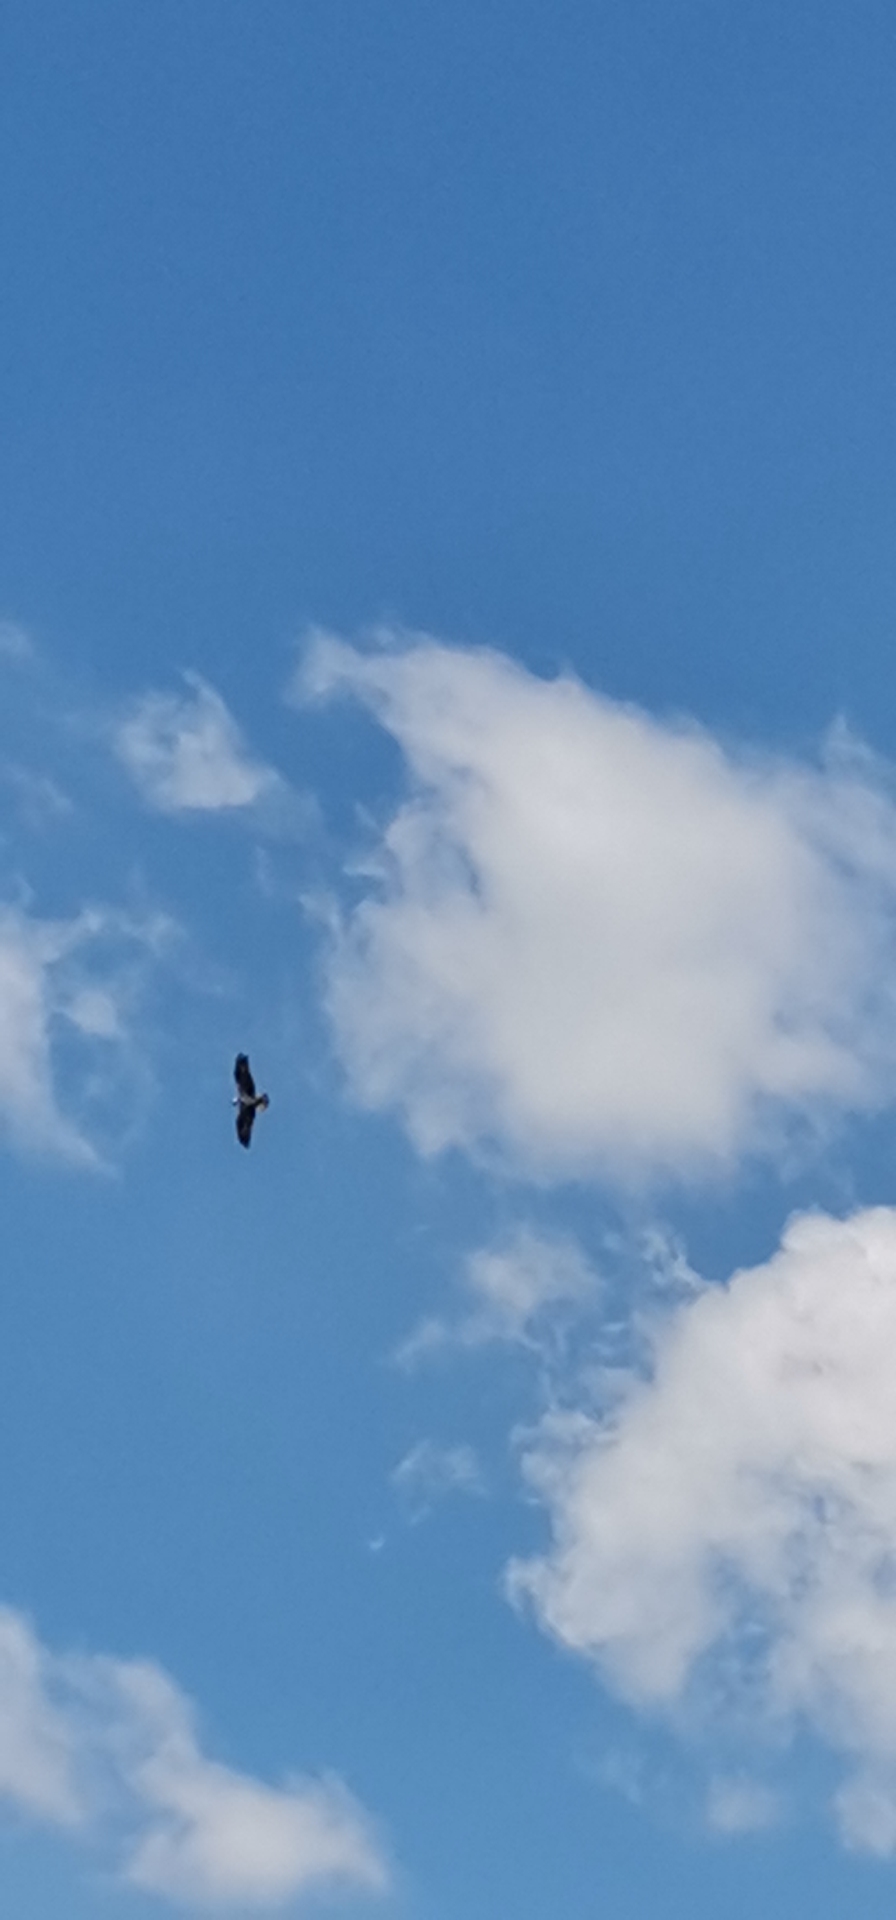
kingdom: Animalia
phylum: Chordata
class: Aves
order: Accipitriformes
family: Pandionidae
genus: Pandion
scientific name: Pandion haliaetus
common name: Osprey
